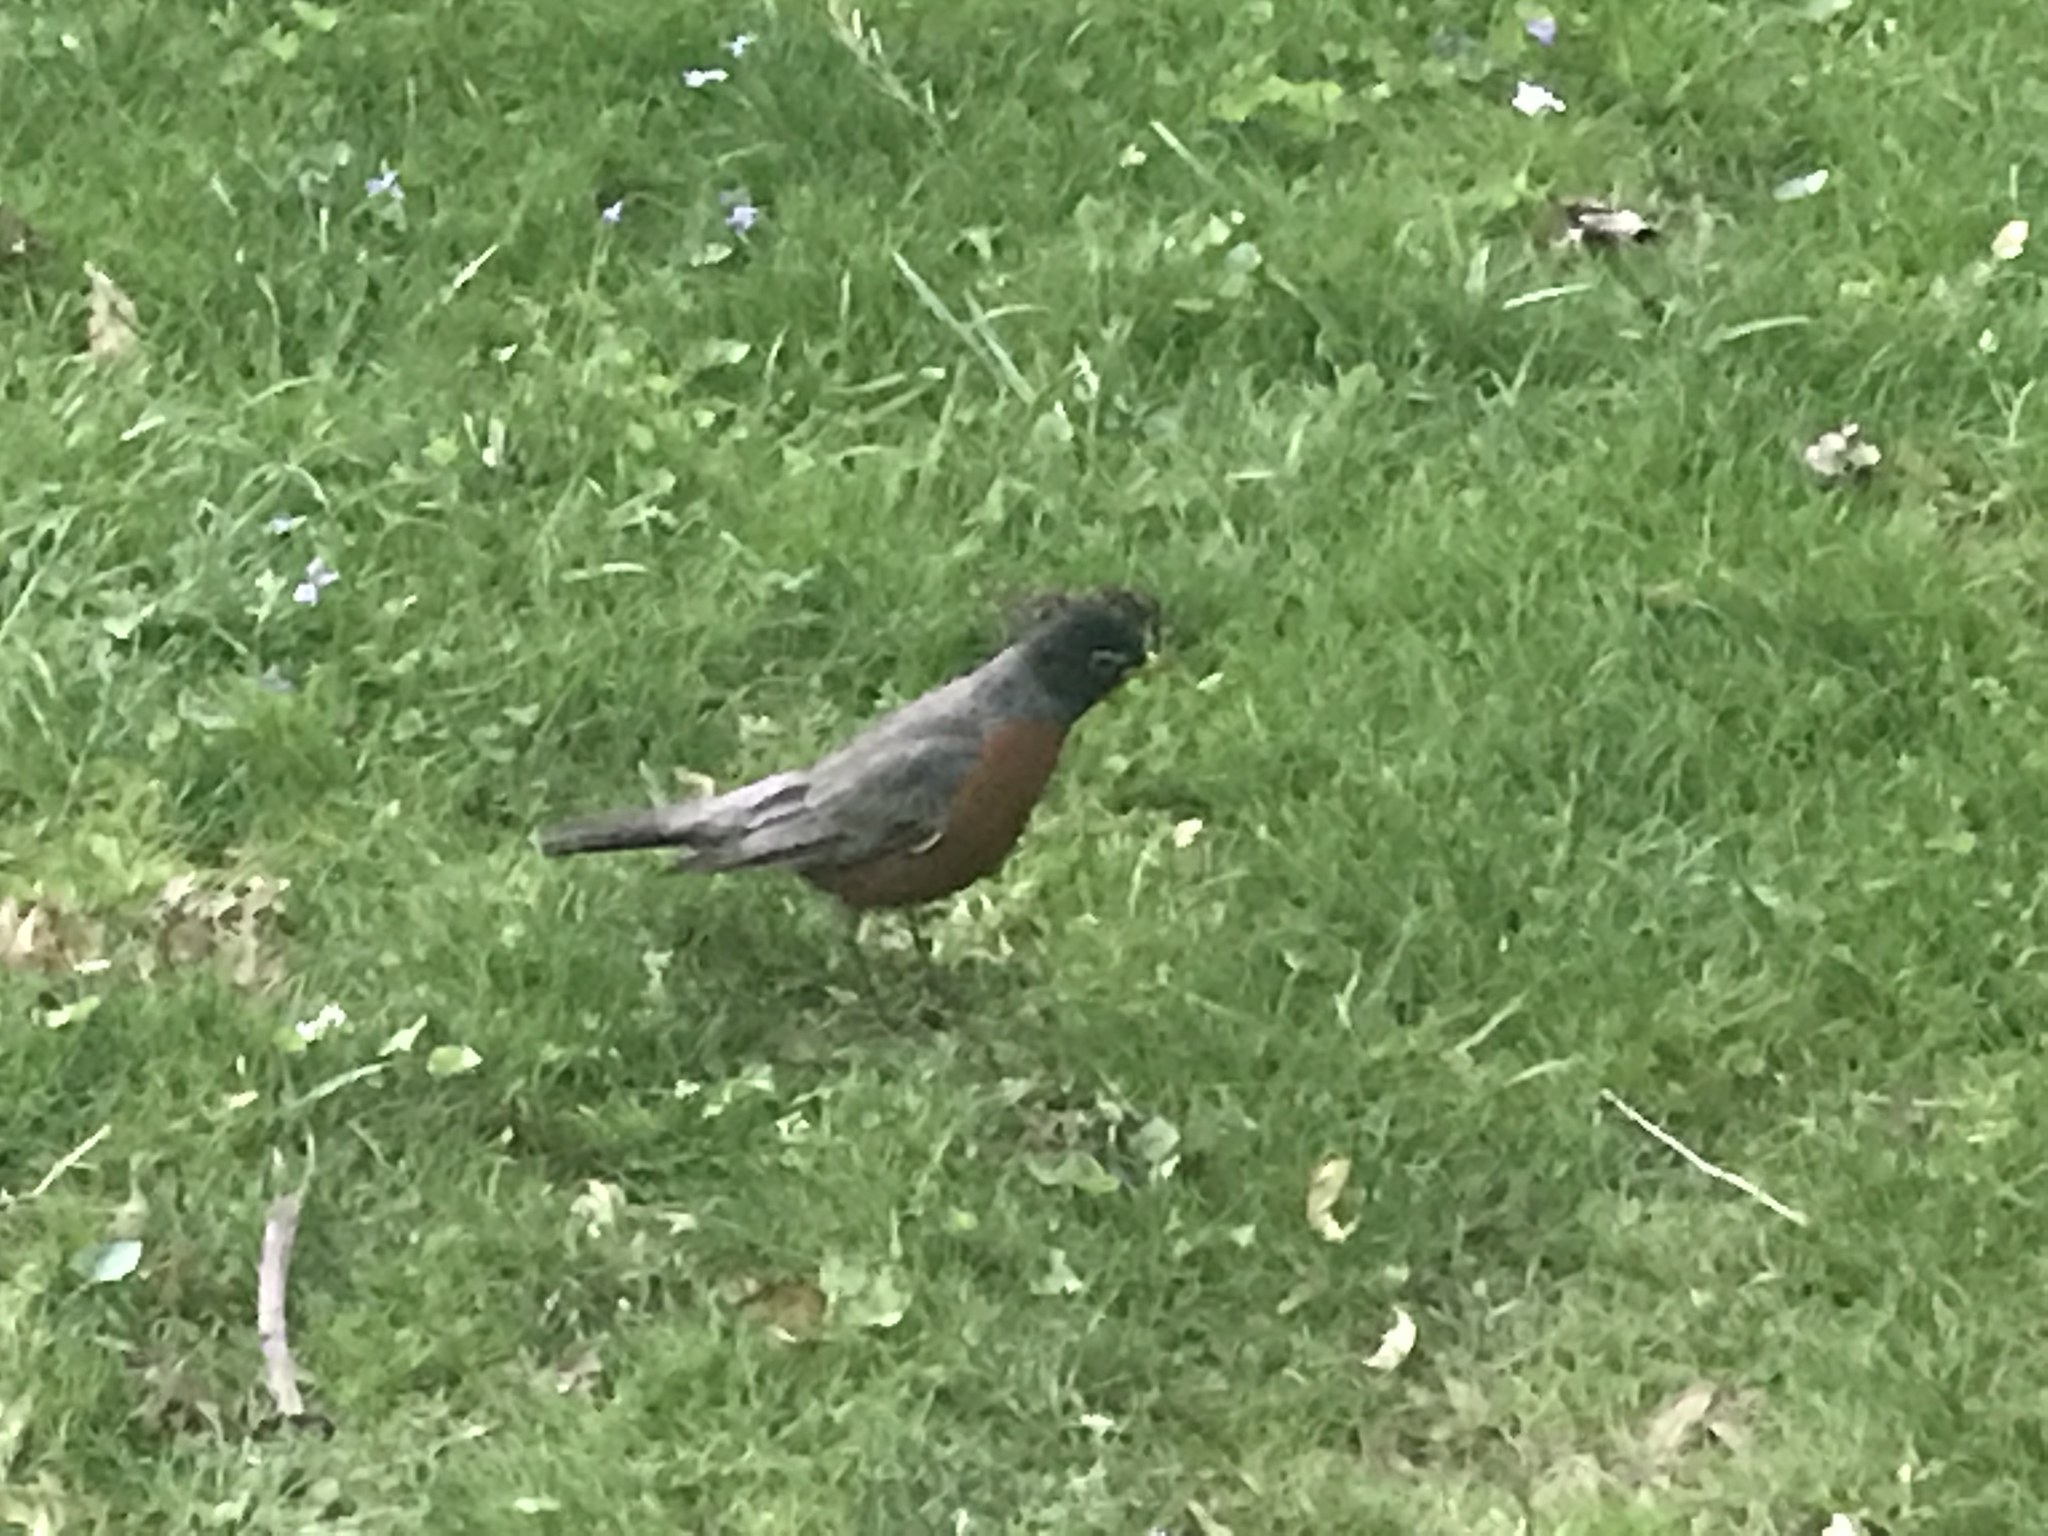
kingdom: Animalia
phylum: Chordata
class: Aves
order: Passeriformes
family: Turdidae
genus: Turdus
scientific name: Turdus migratorius
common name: American robin
